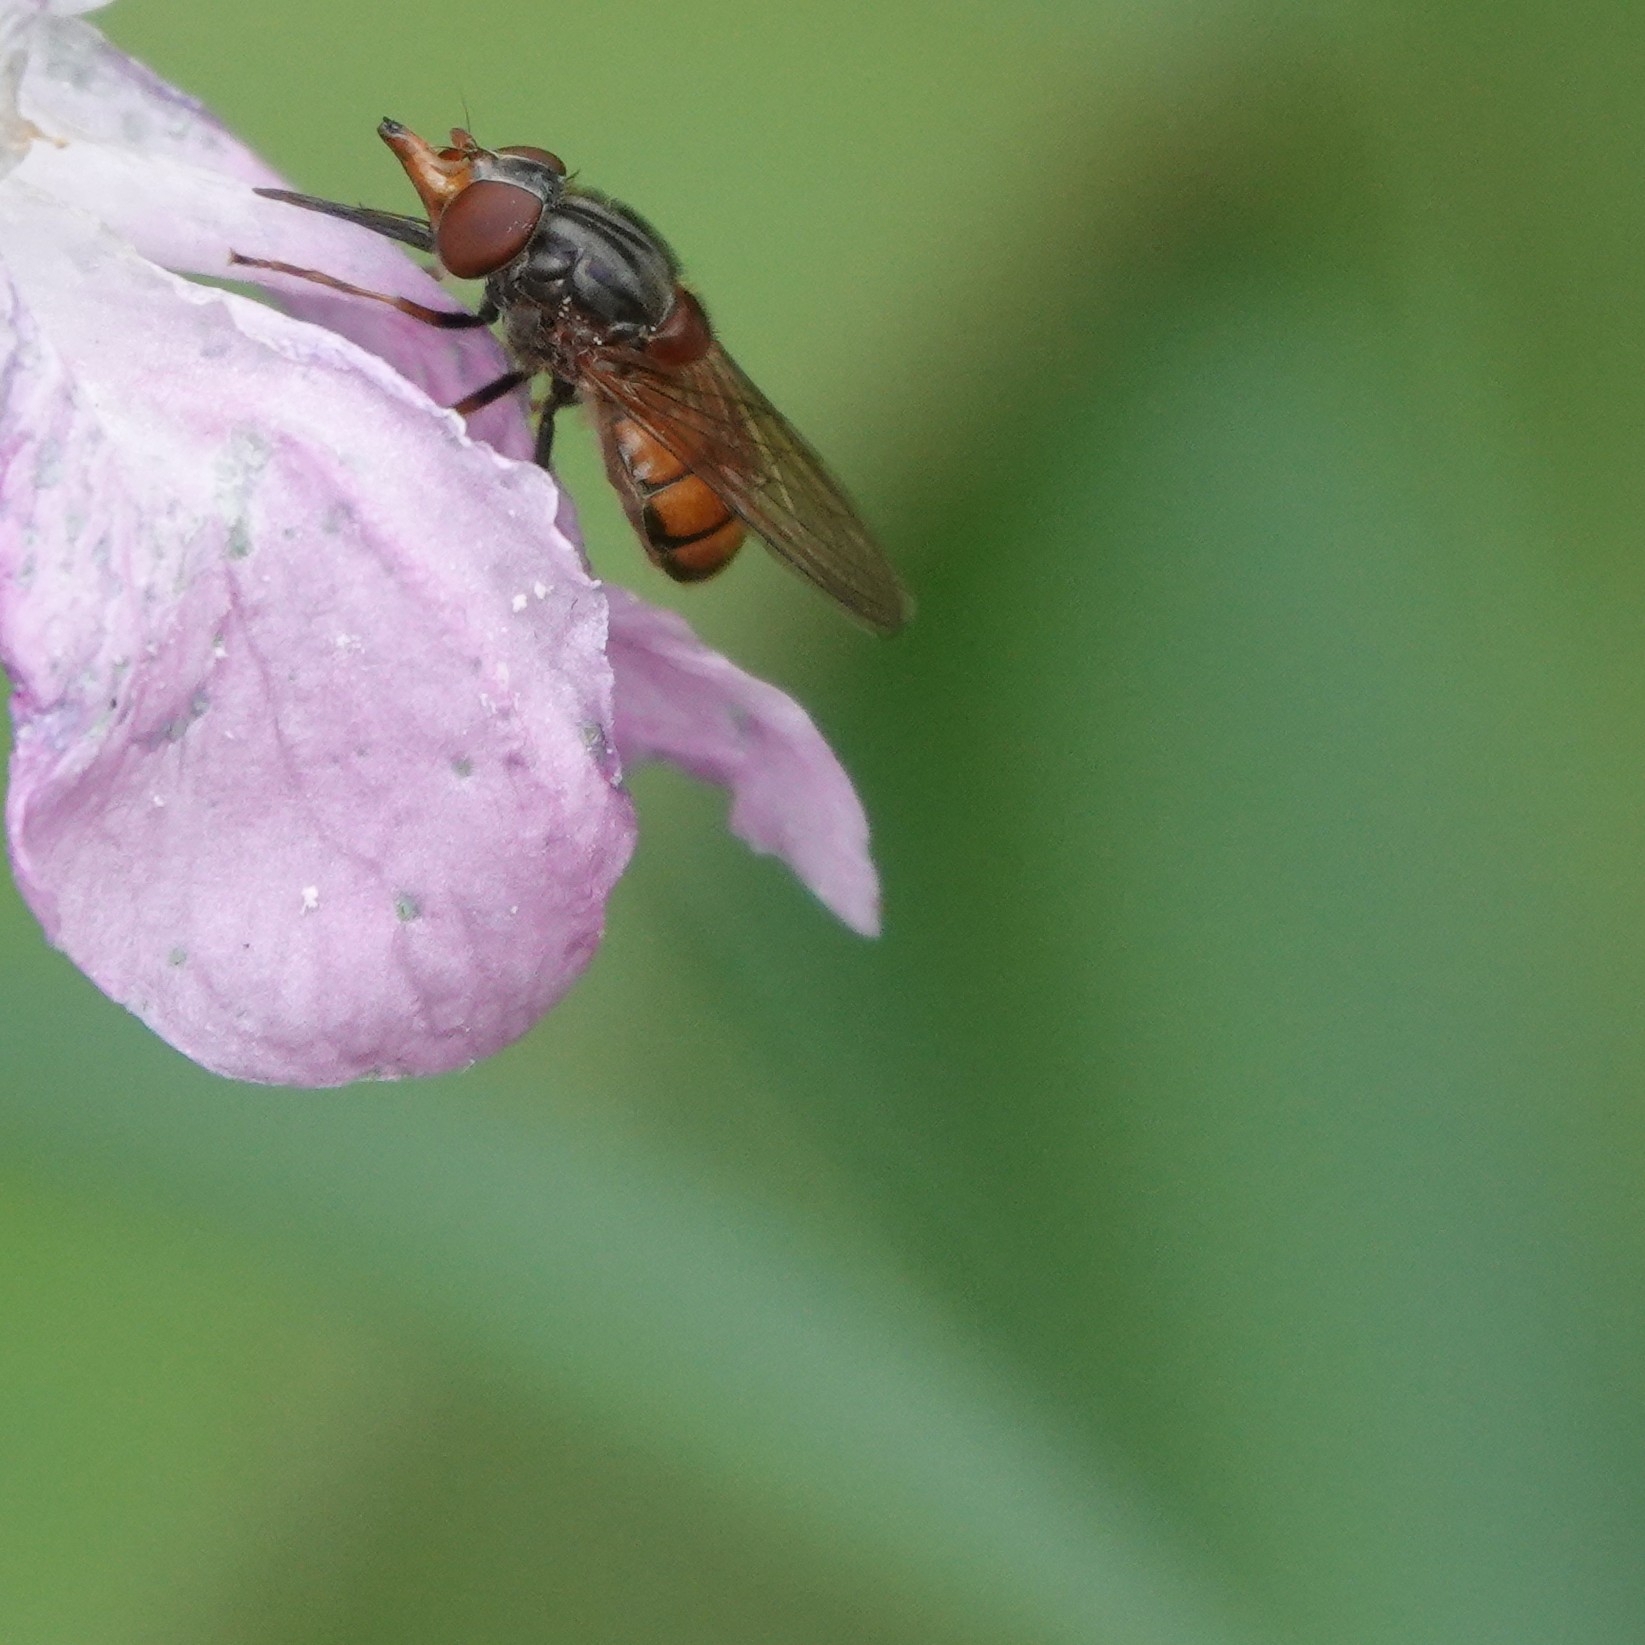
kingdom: Animalia
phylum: Arthropoda
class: Insecta
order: Diptera
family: Syrphidae
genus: Rhingia
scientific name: Rhingia campestris
